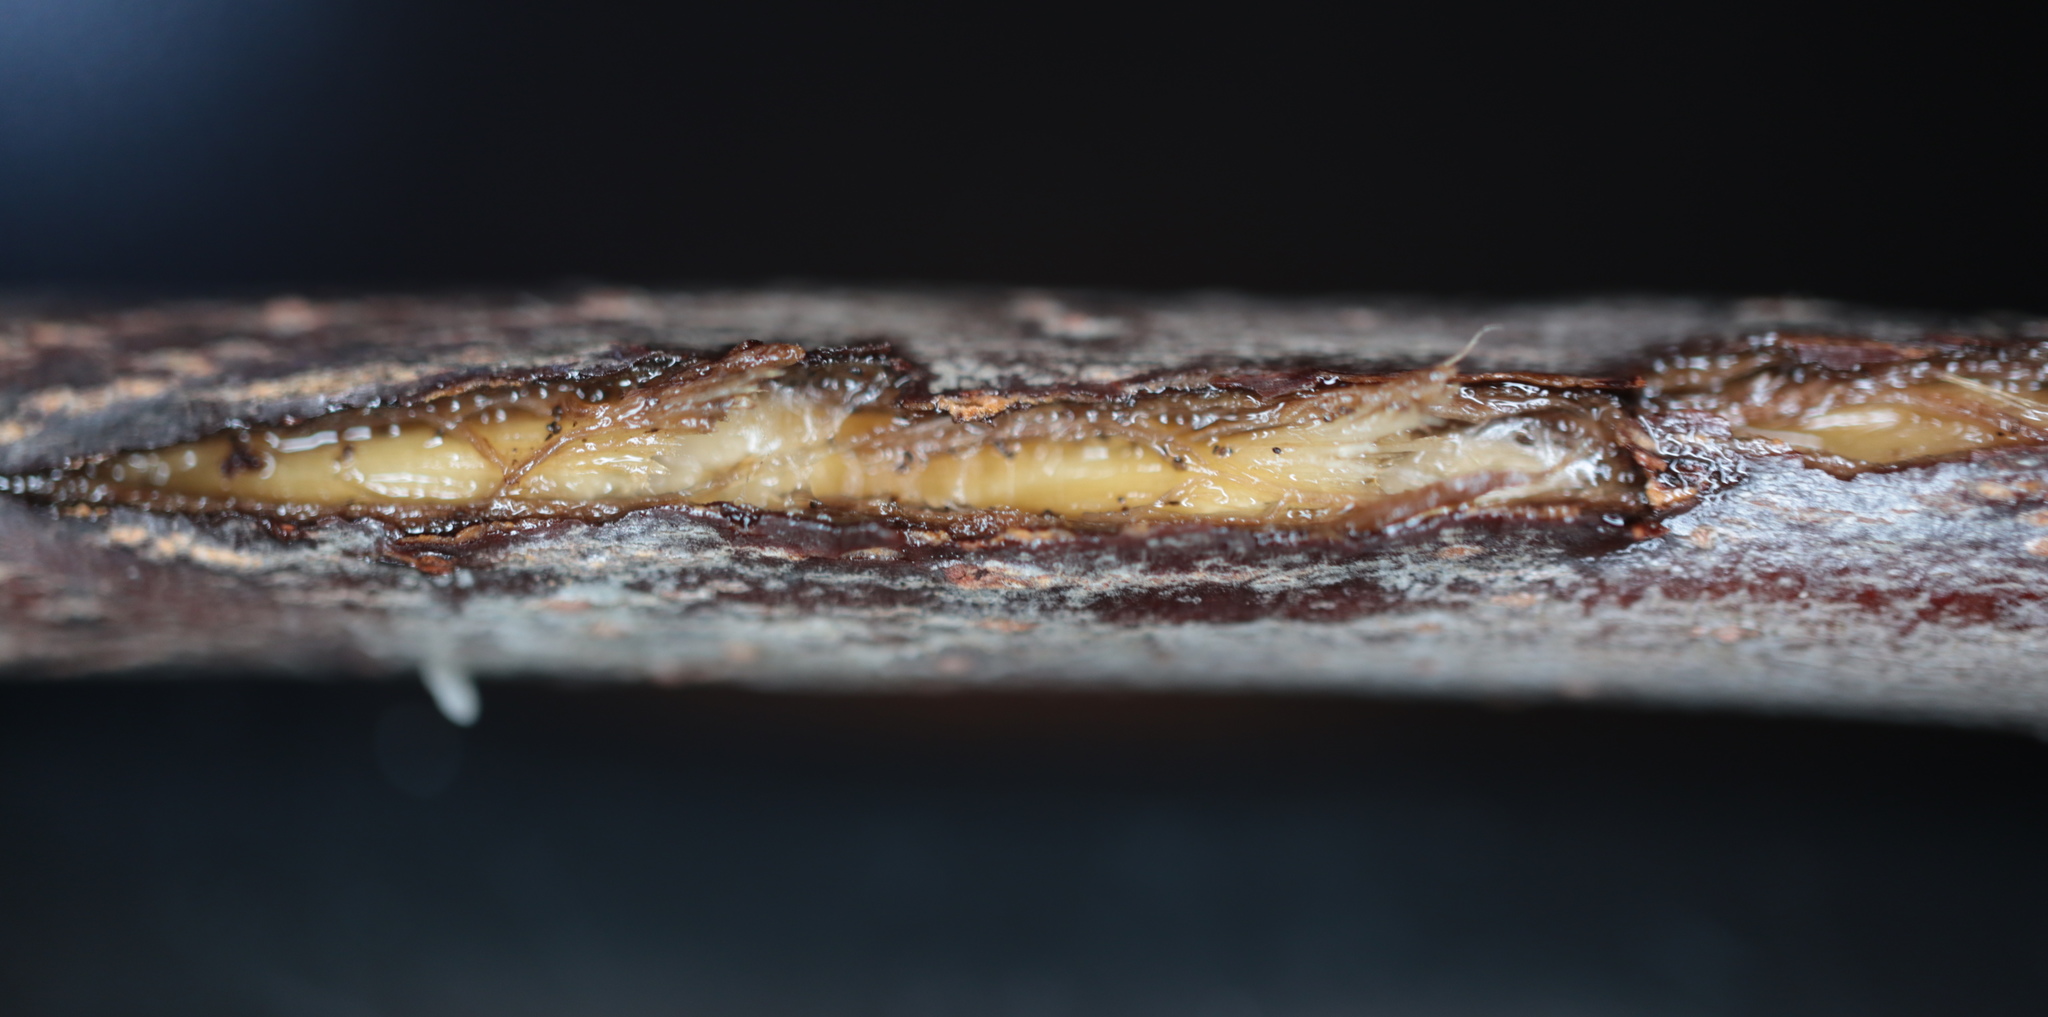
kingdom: Animalia
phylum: Arthropoda
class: Insecta
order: Hemiptera
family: Cicadidae
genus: Magicicada
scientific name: Magicicada
